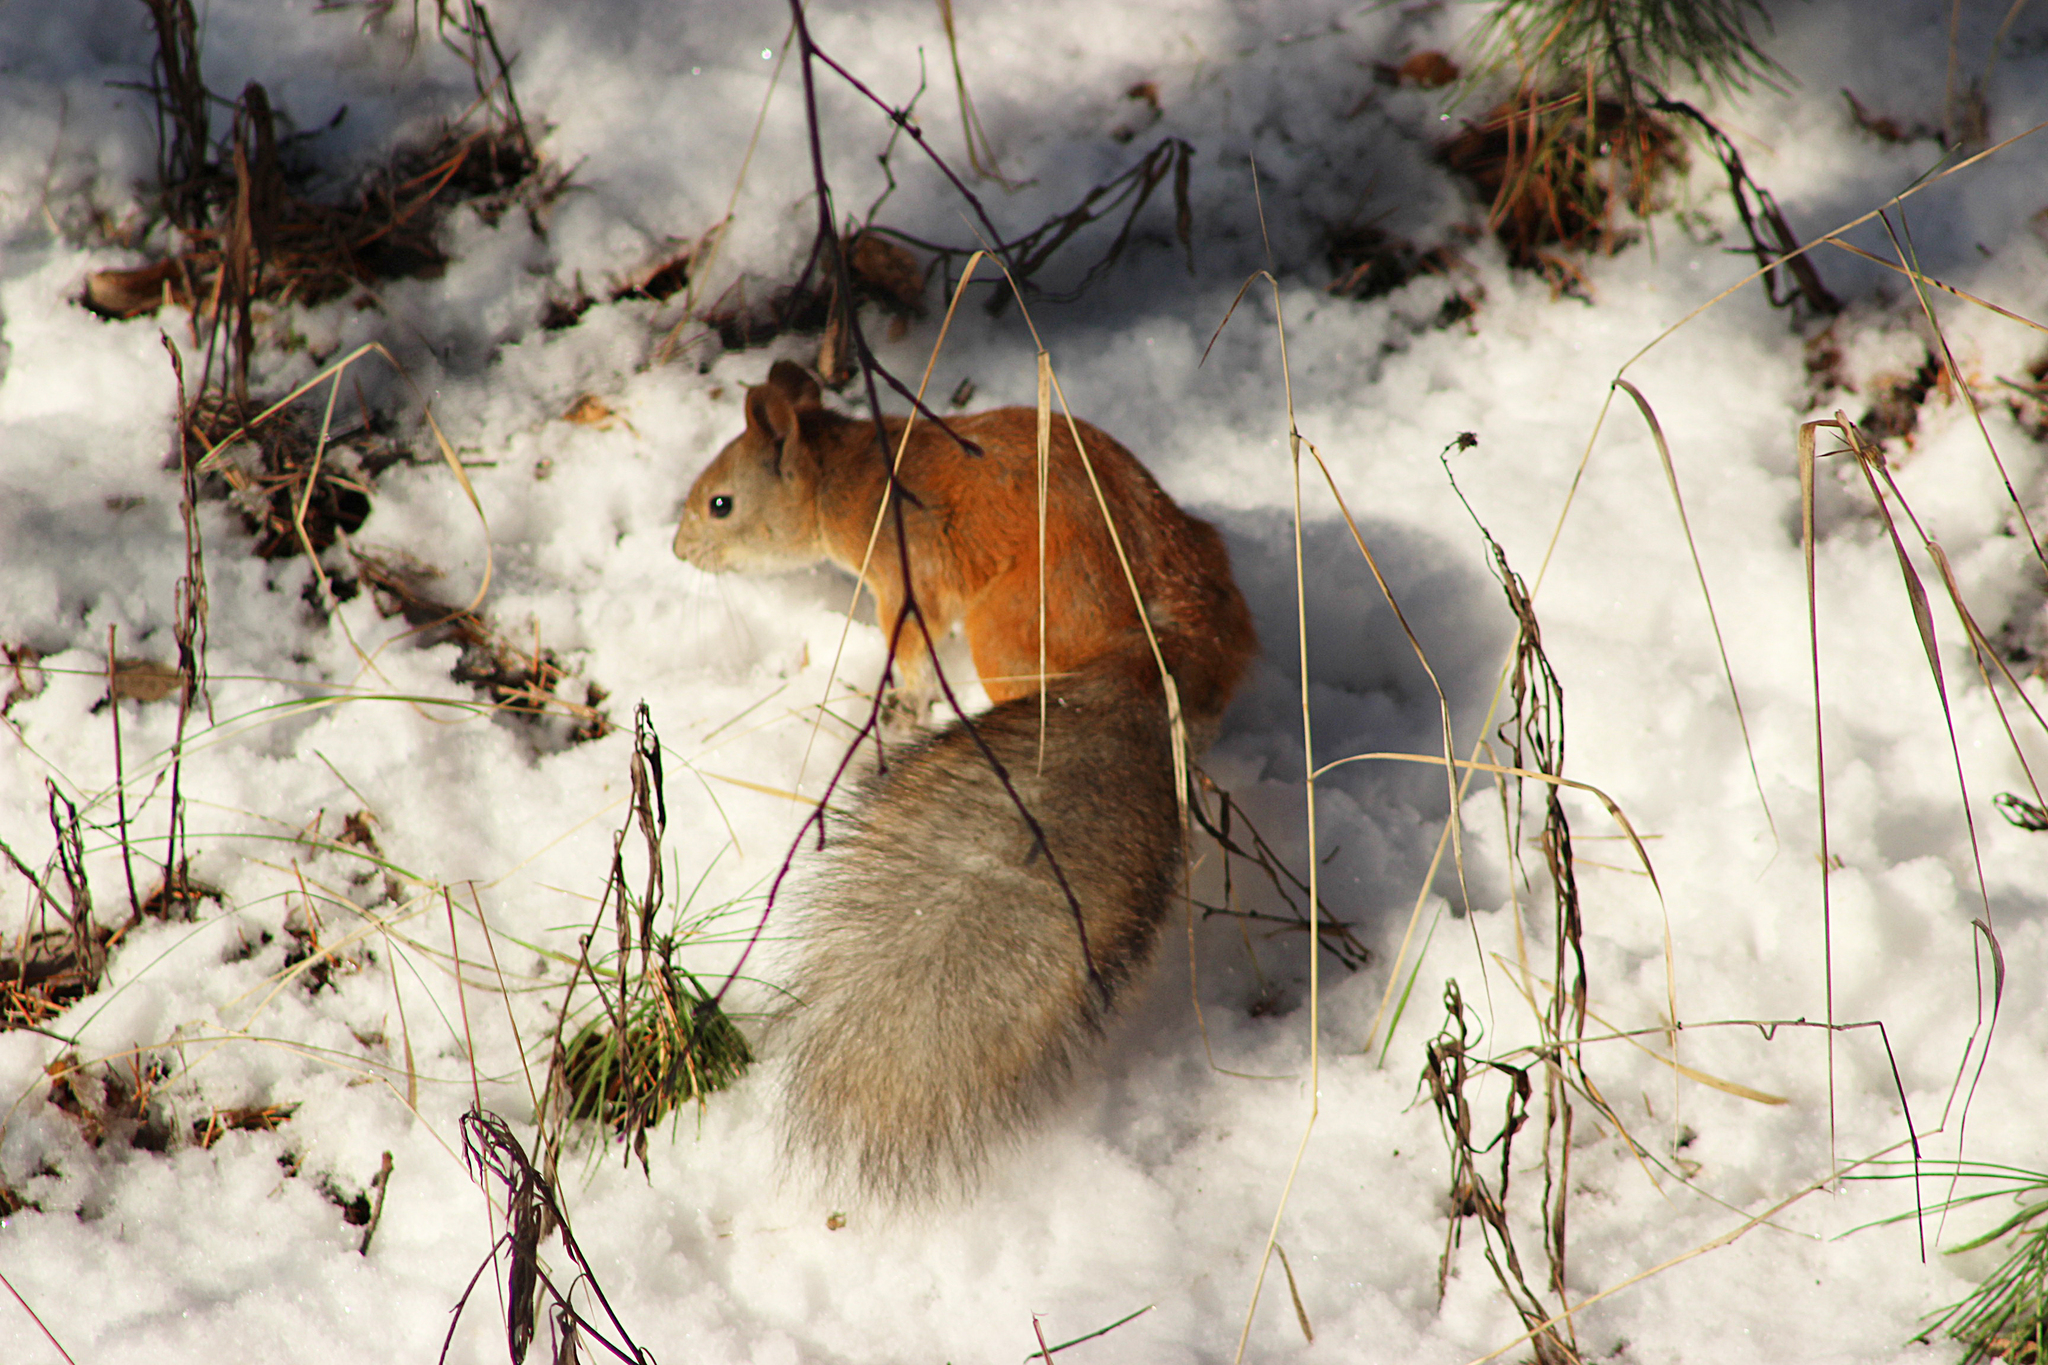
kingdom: Animalia
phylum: Chordata
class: Mammalia
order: Rodentia
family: Sciuridae
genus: Sciurus
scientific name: Sciurus vulgaris
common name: Eurasian red squirrel
